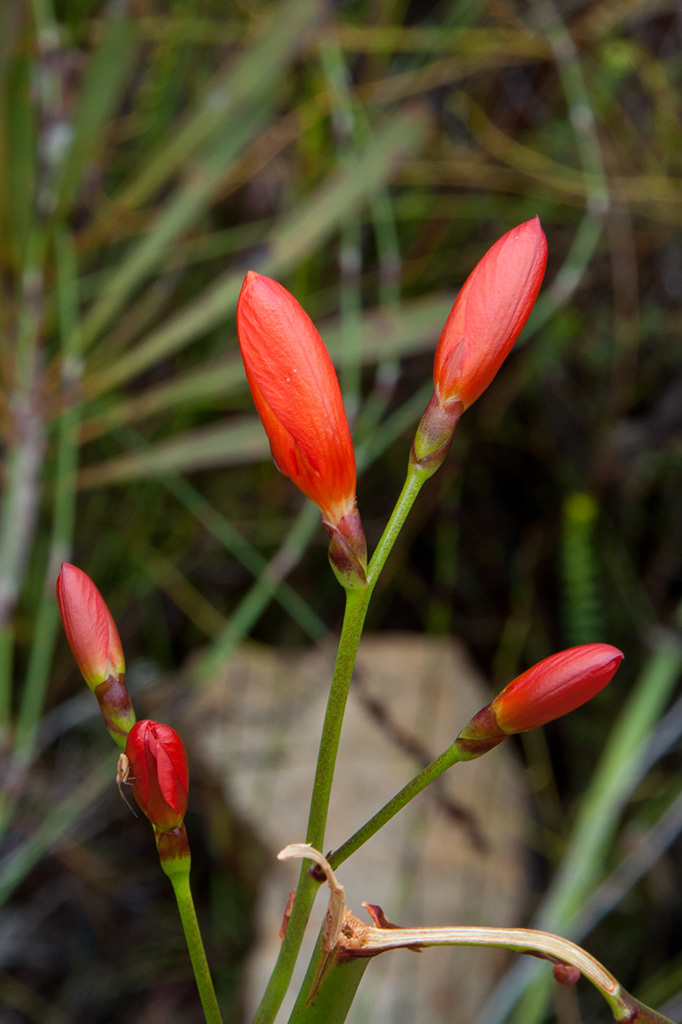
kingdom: Plantae
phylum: Tracheophyta
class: Liliopsida
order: Asparagales
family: Iridaceae
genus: Pillansia
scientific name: Pillansia templemannii
